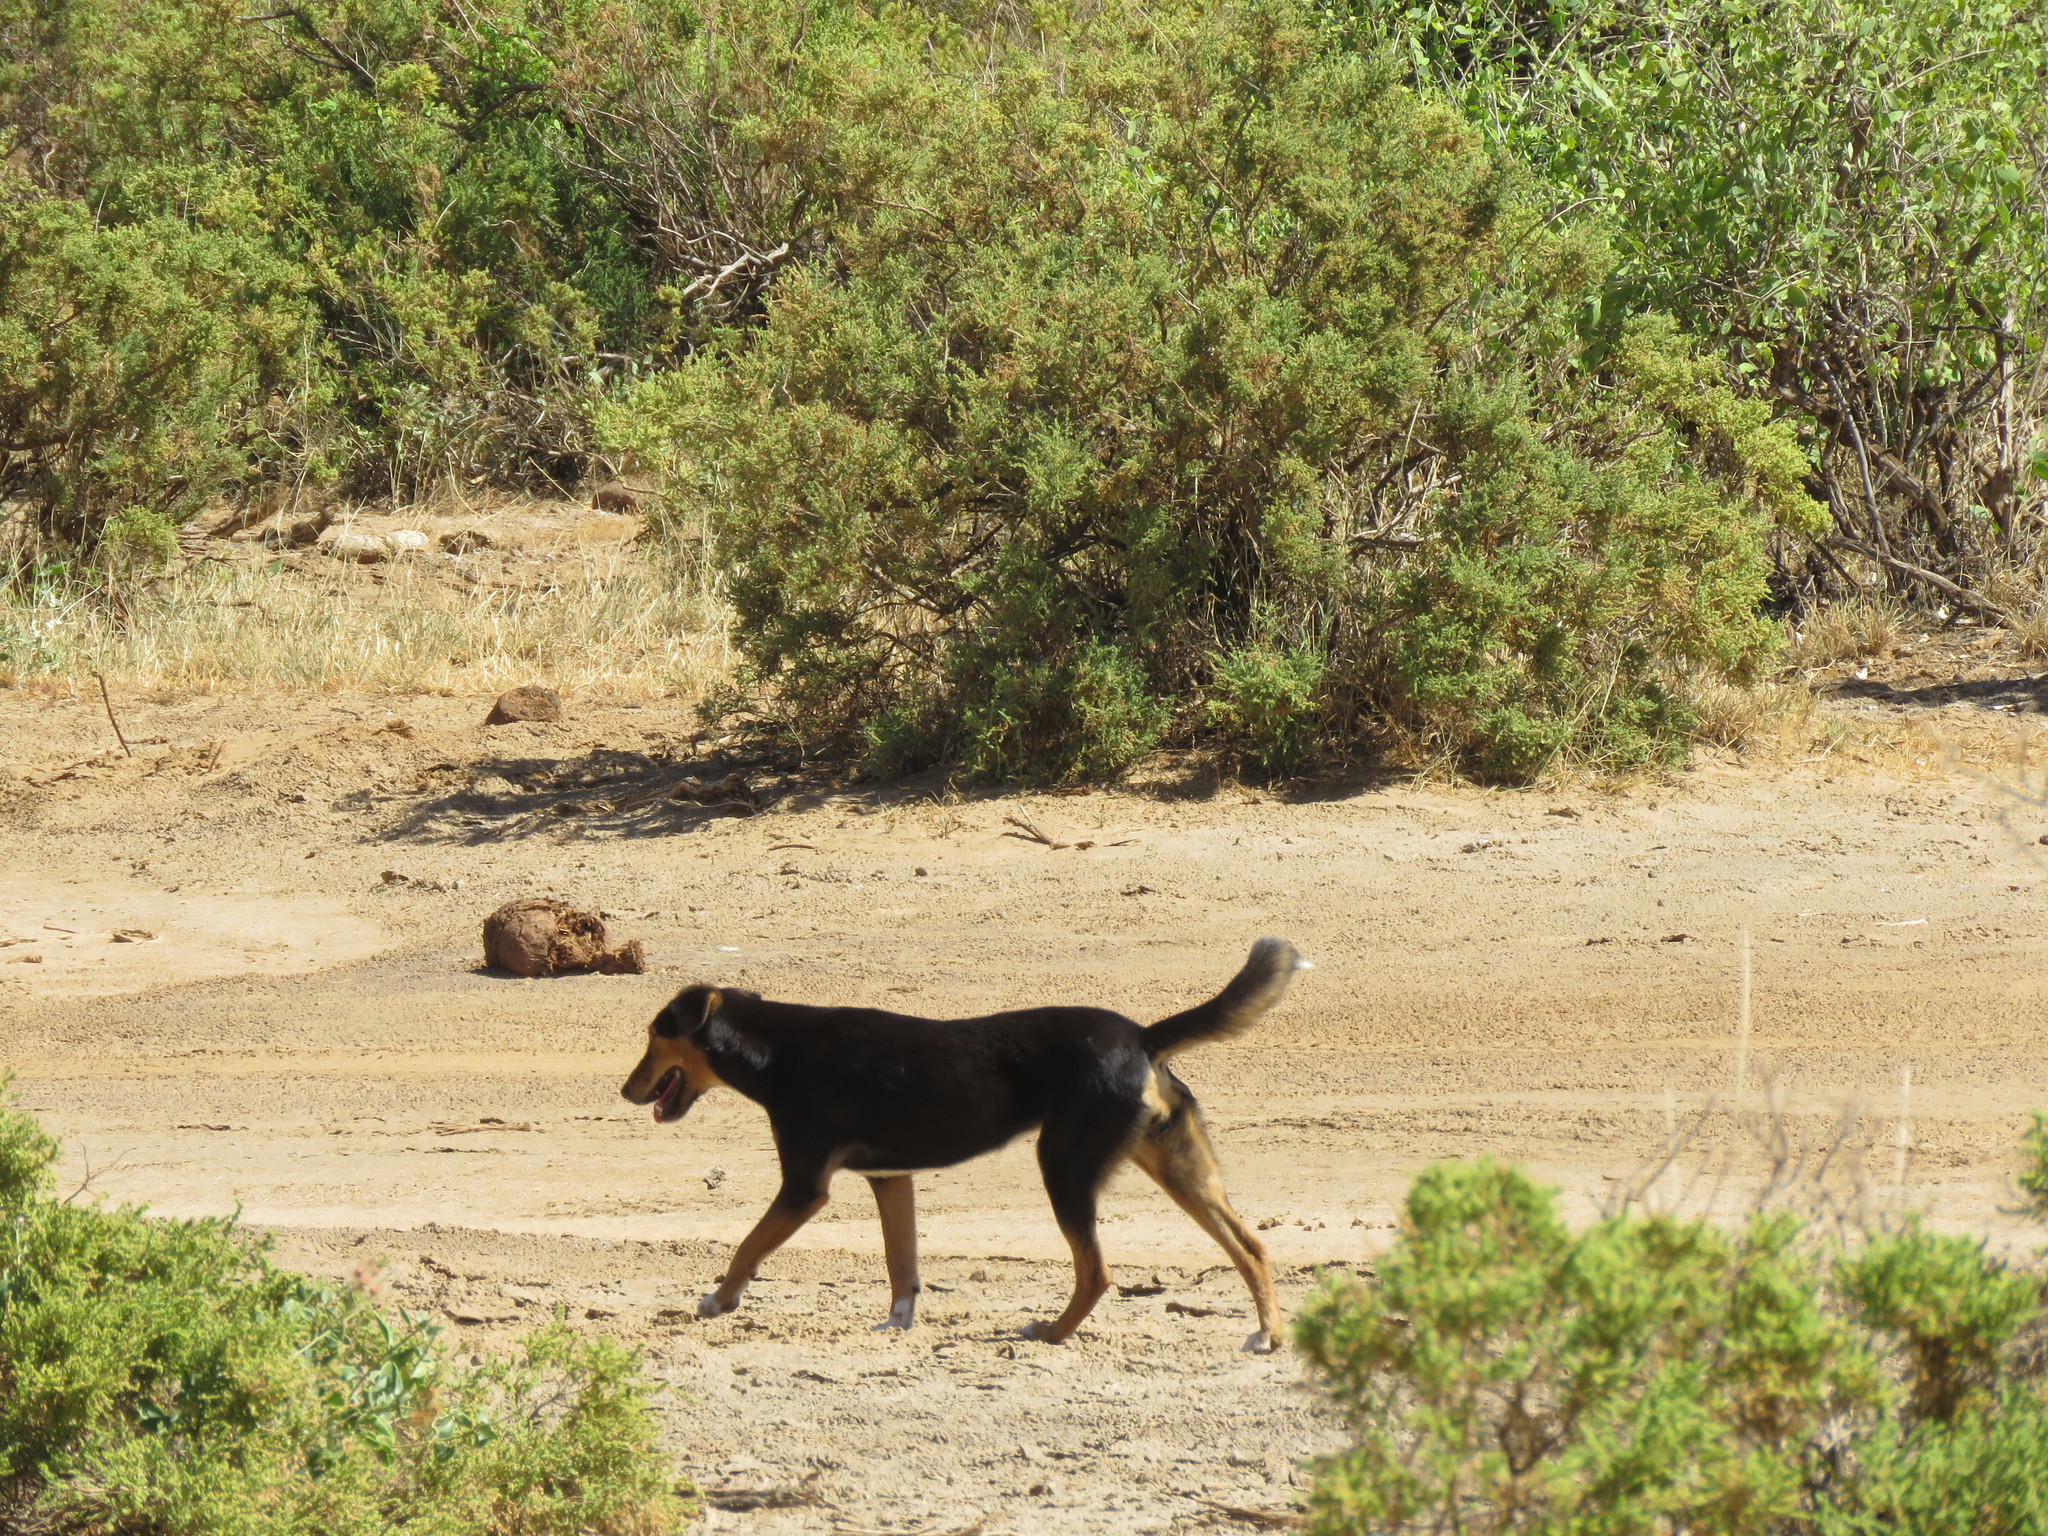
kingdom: Animalia
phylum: Chordata
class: Mammalia
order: Carnivora
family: Canidae
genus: Canis
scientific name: Canis lupus
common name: Gray wolf
